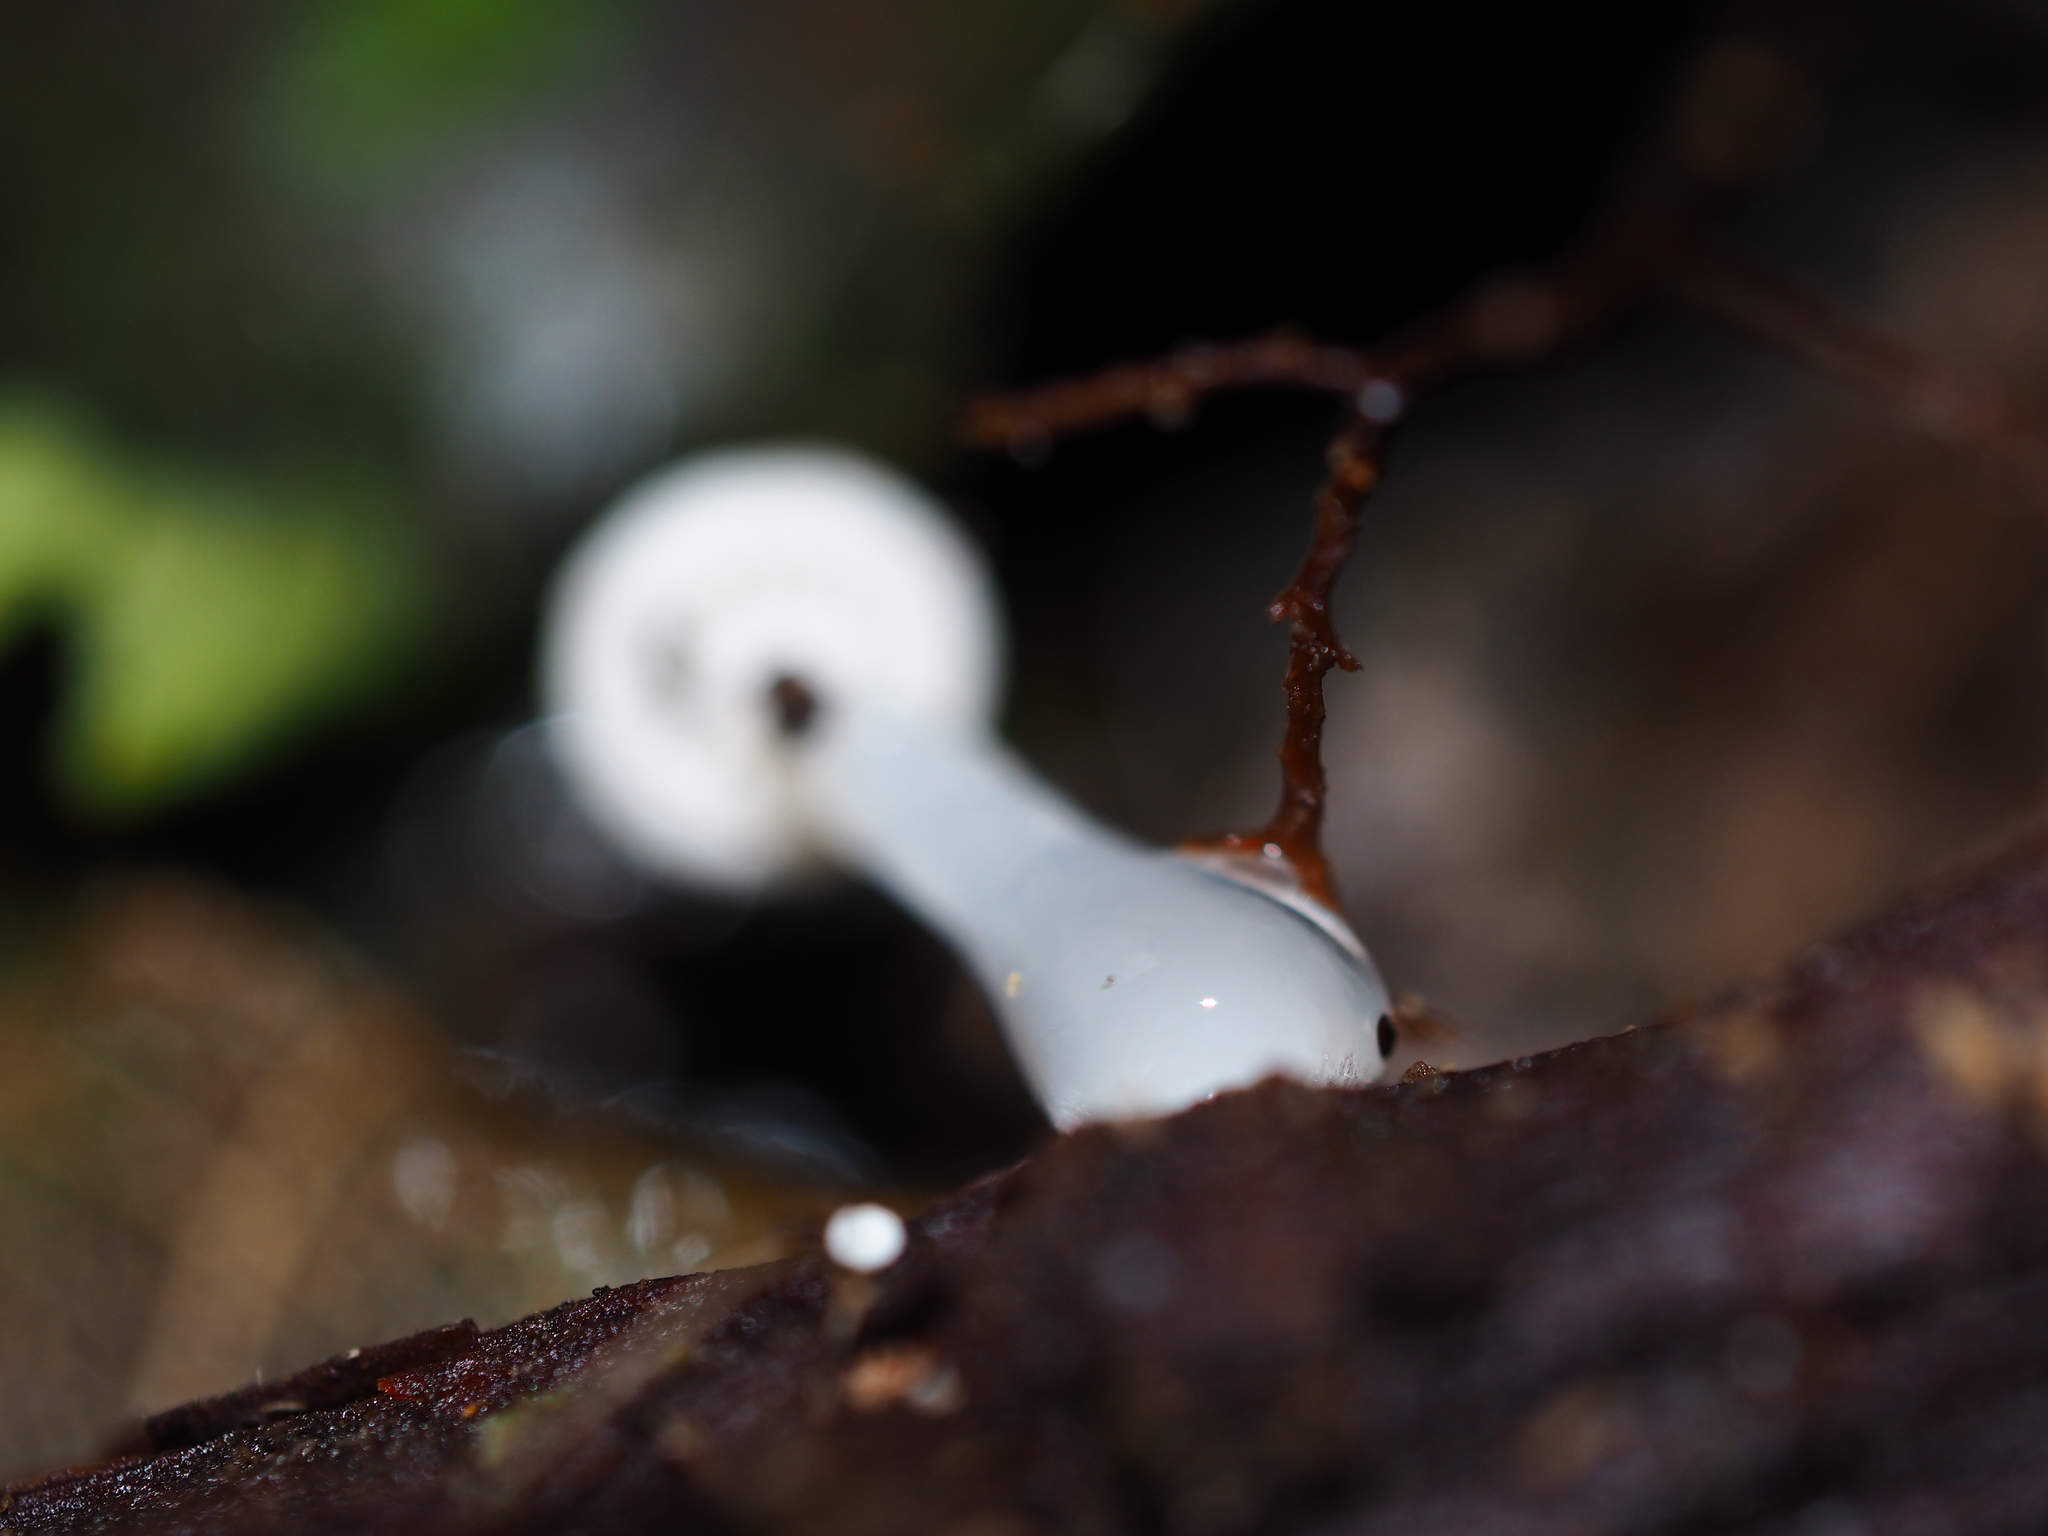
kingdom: Fungi
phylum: Basidiomycota
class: Agaricomycetes
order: Agaricales
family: Mycenaceae
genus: Roridomyces
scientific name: Roridomyces austrororidus
